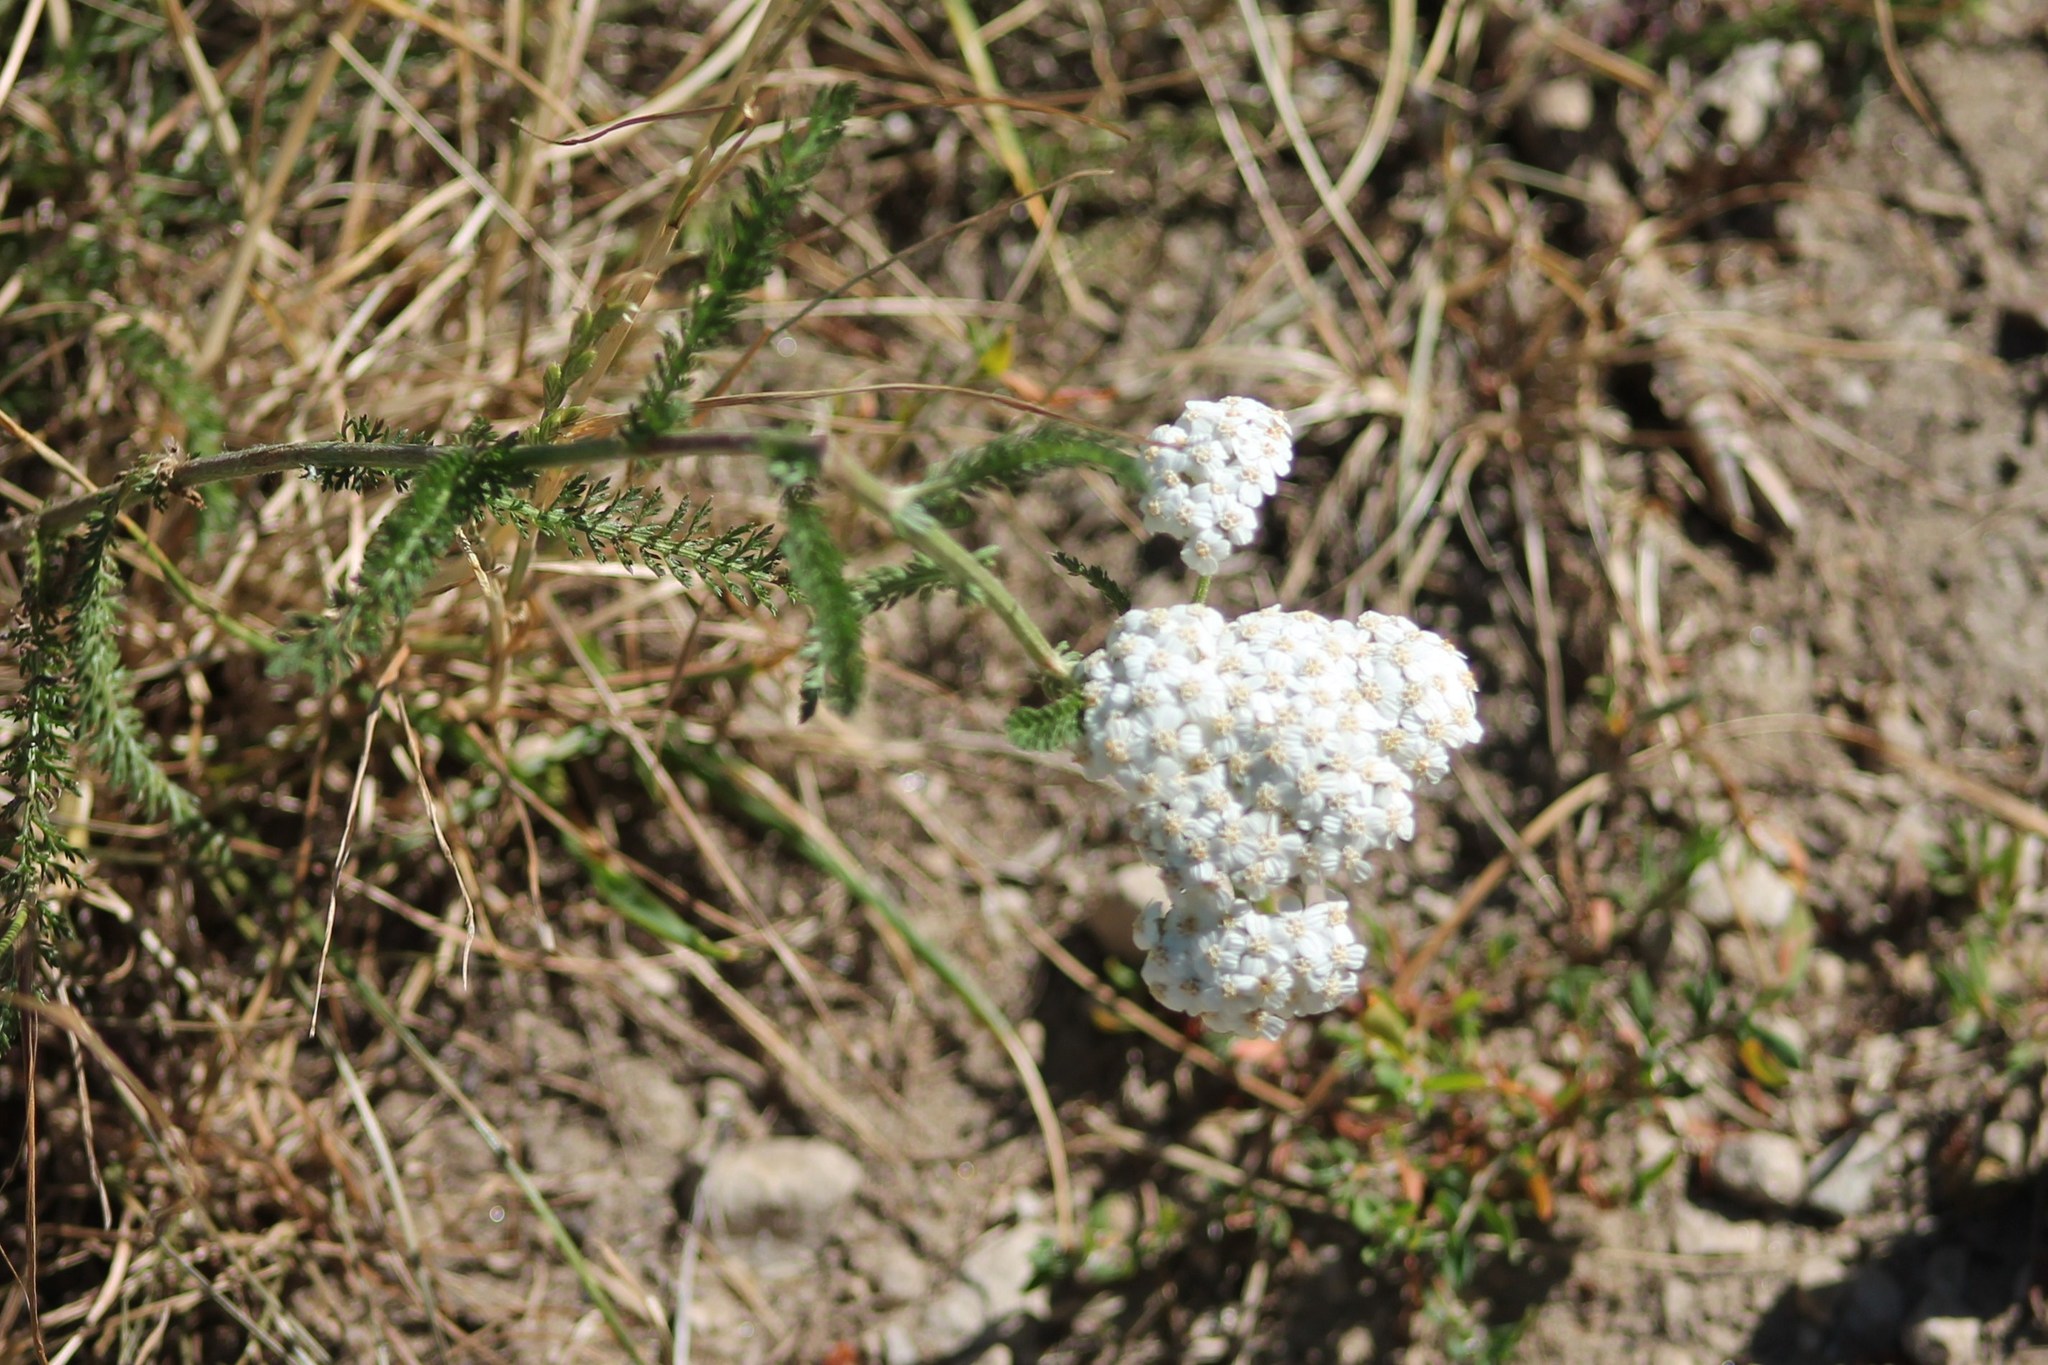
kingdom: Plantae
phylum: Tracheophyta
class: Magnoliopsida
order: Asterales
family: Asteraceae
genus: Achillea
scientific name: Achillea millefolium
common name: Yarrow
